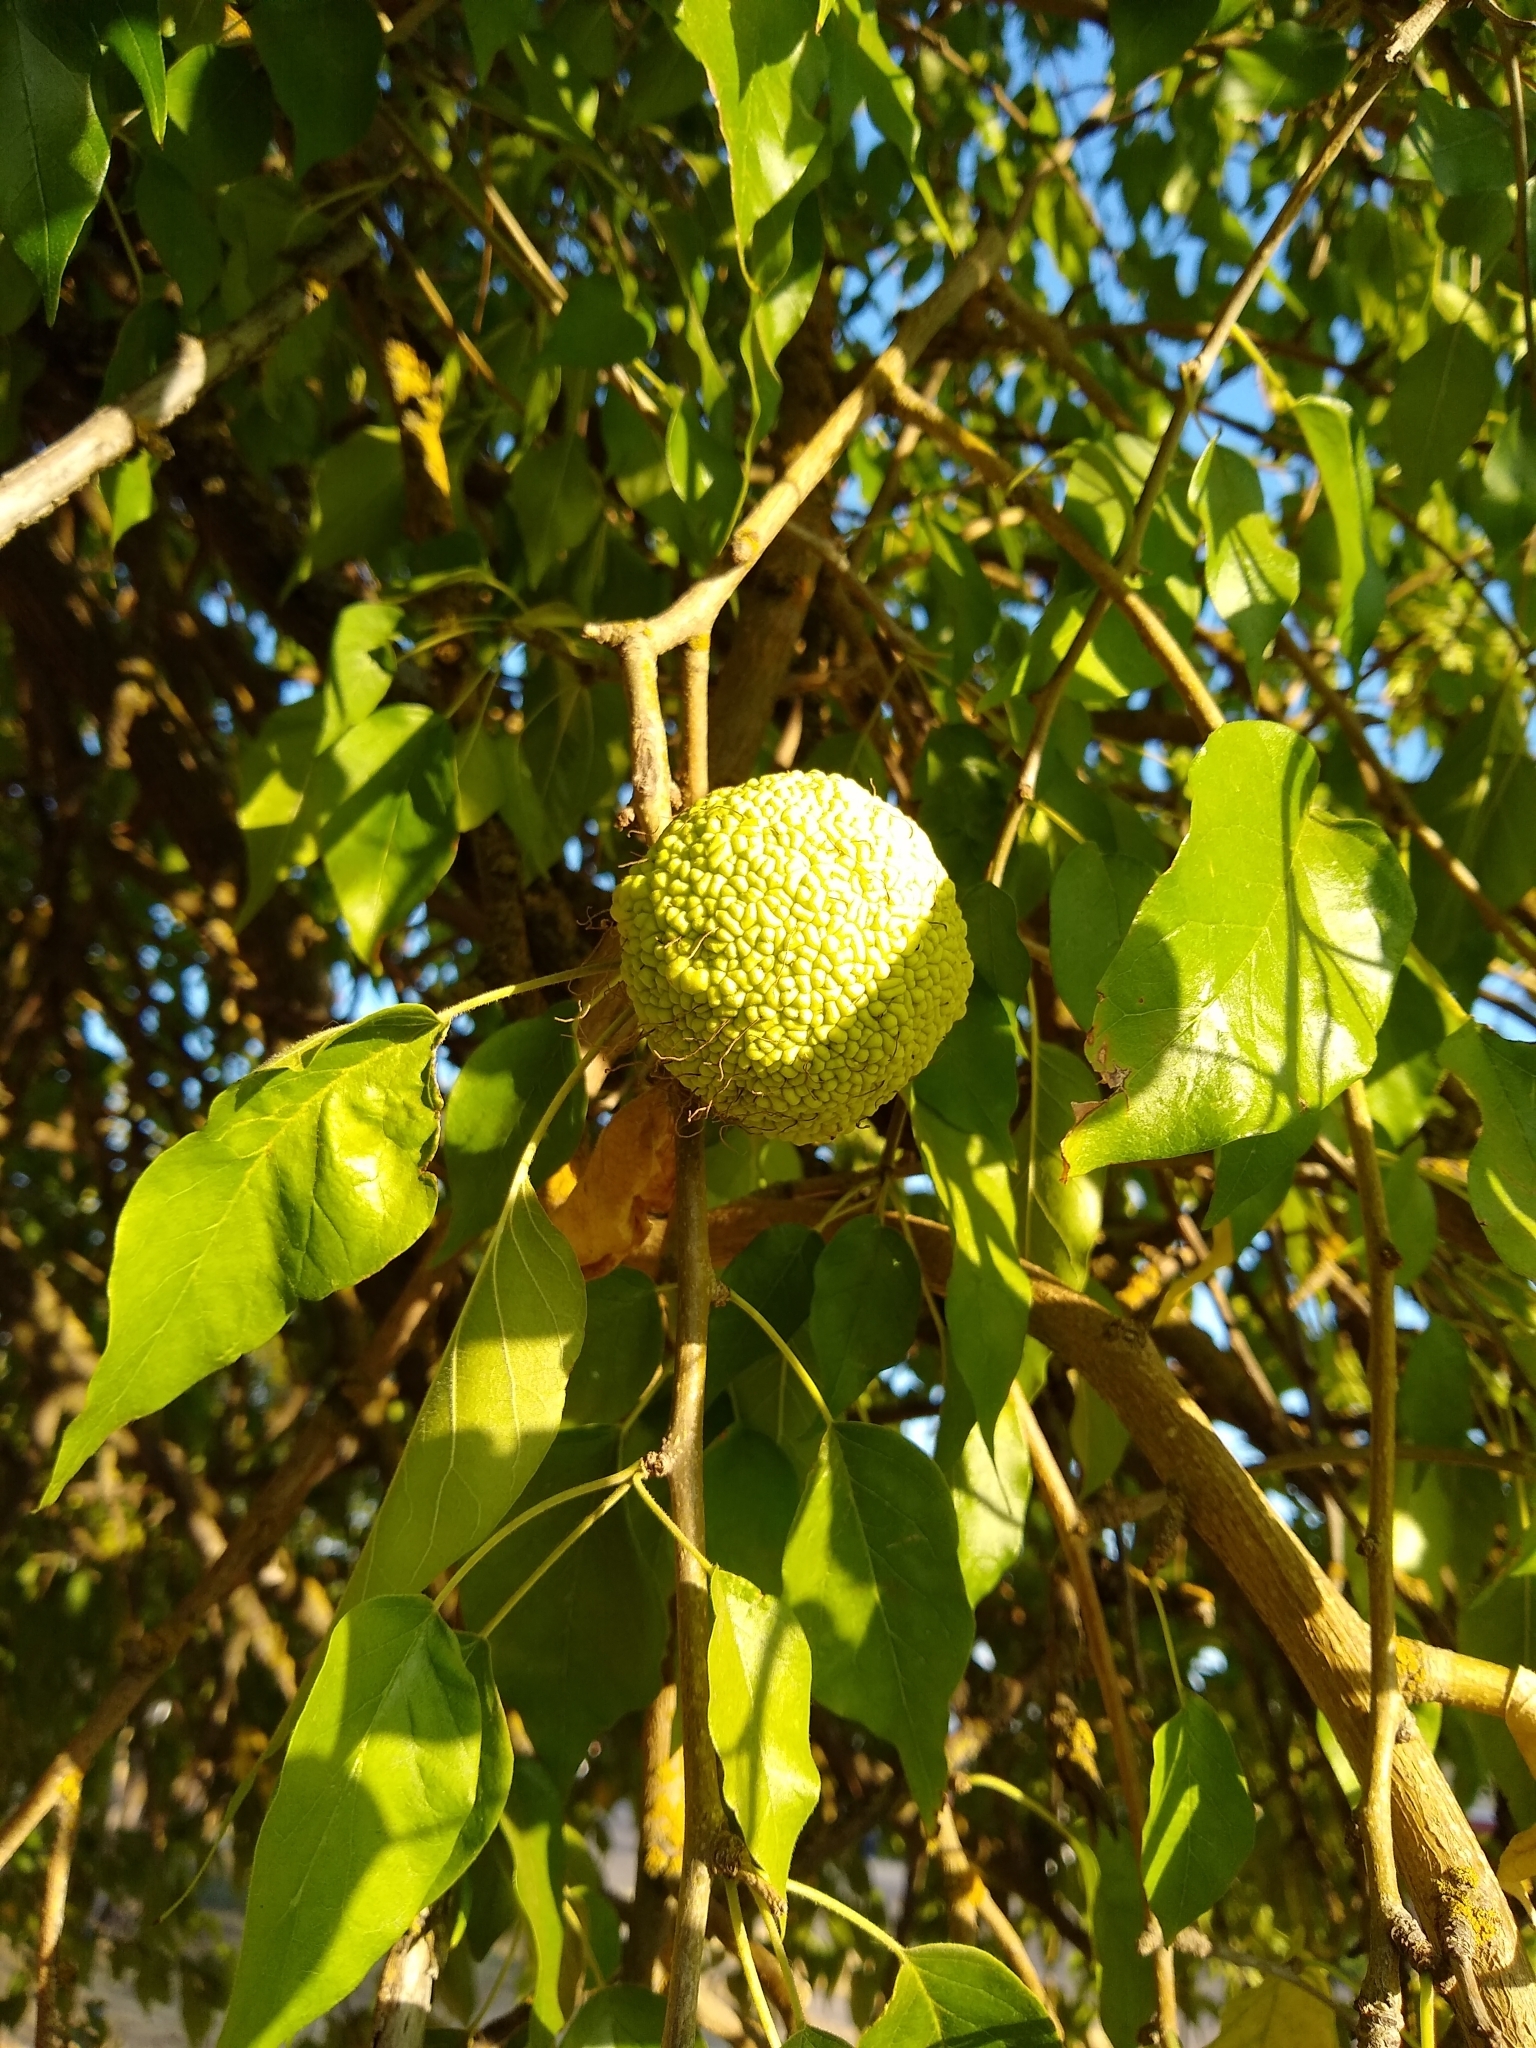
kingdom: Plantae
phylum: Tracheophyta
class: Magnoliopsida
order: Rosales
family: Moraceae
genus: Maclura
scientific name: Maclura pomifera
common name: Osage-orange
